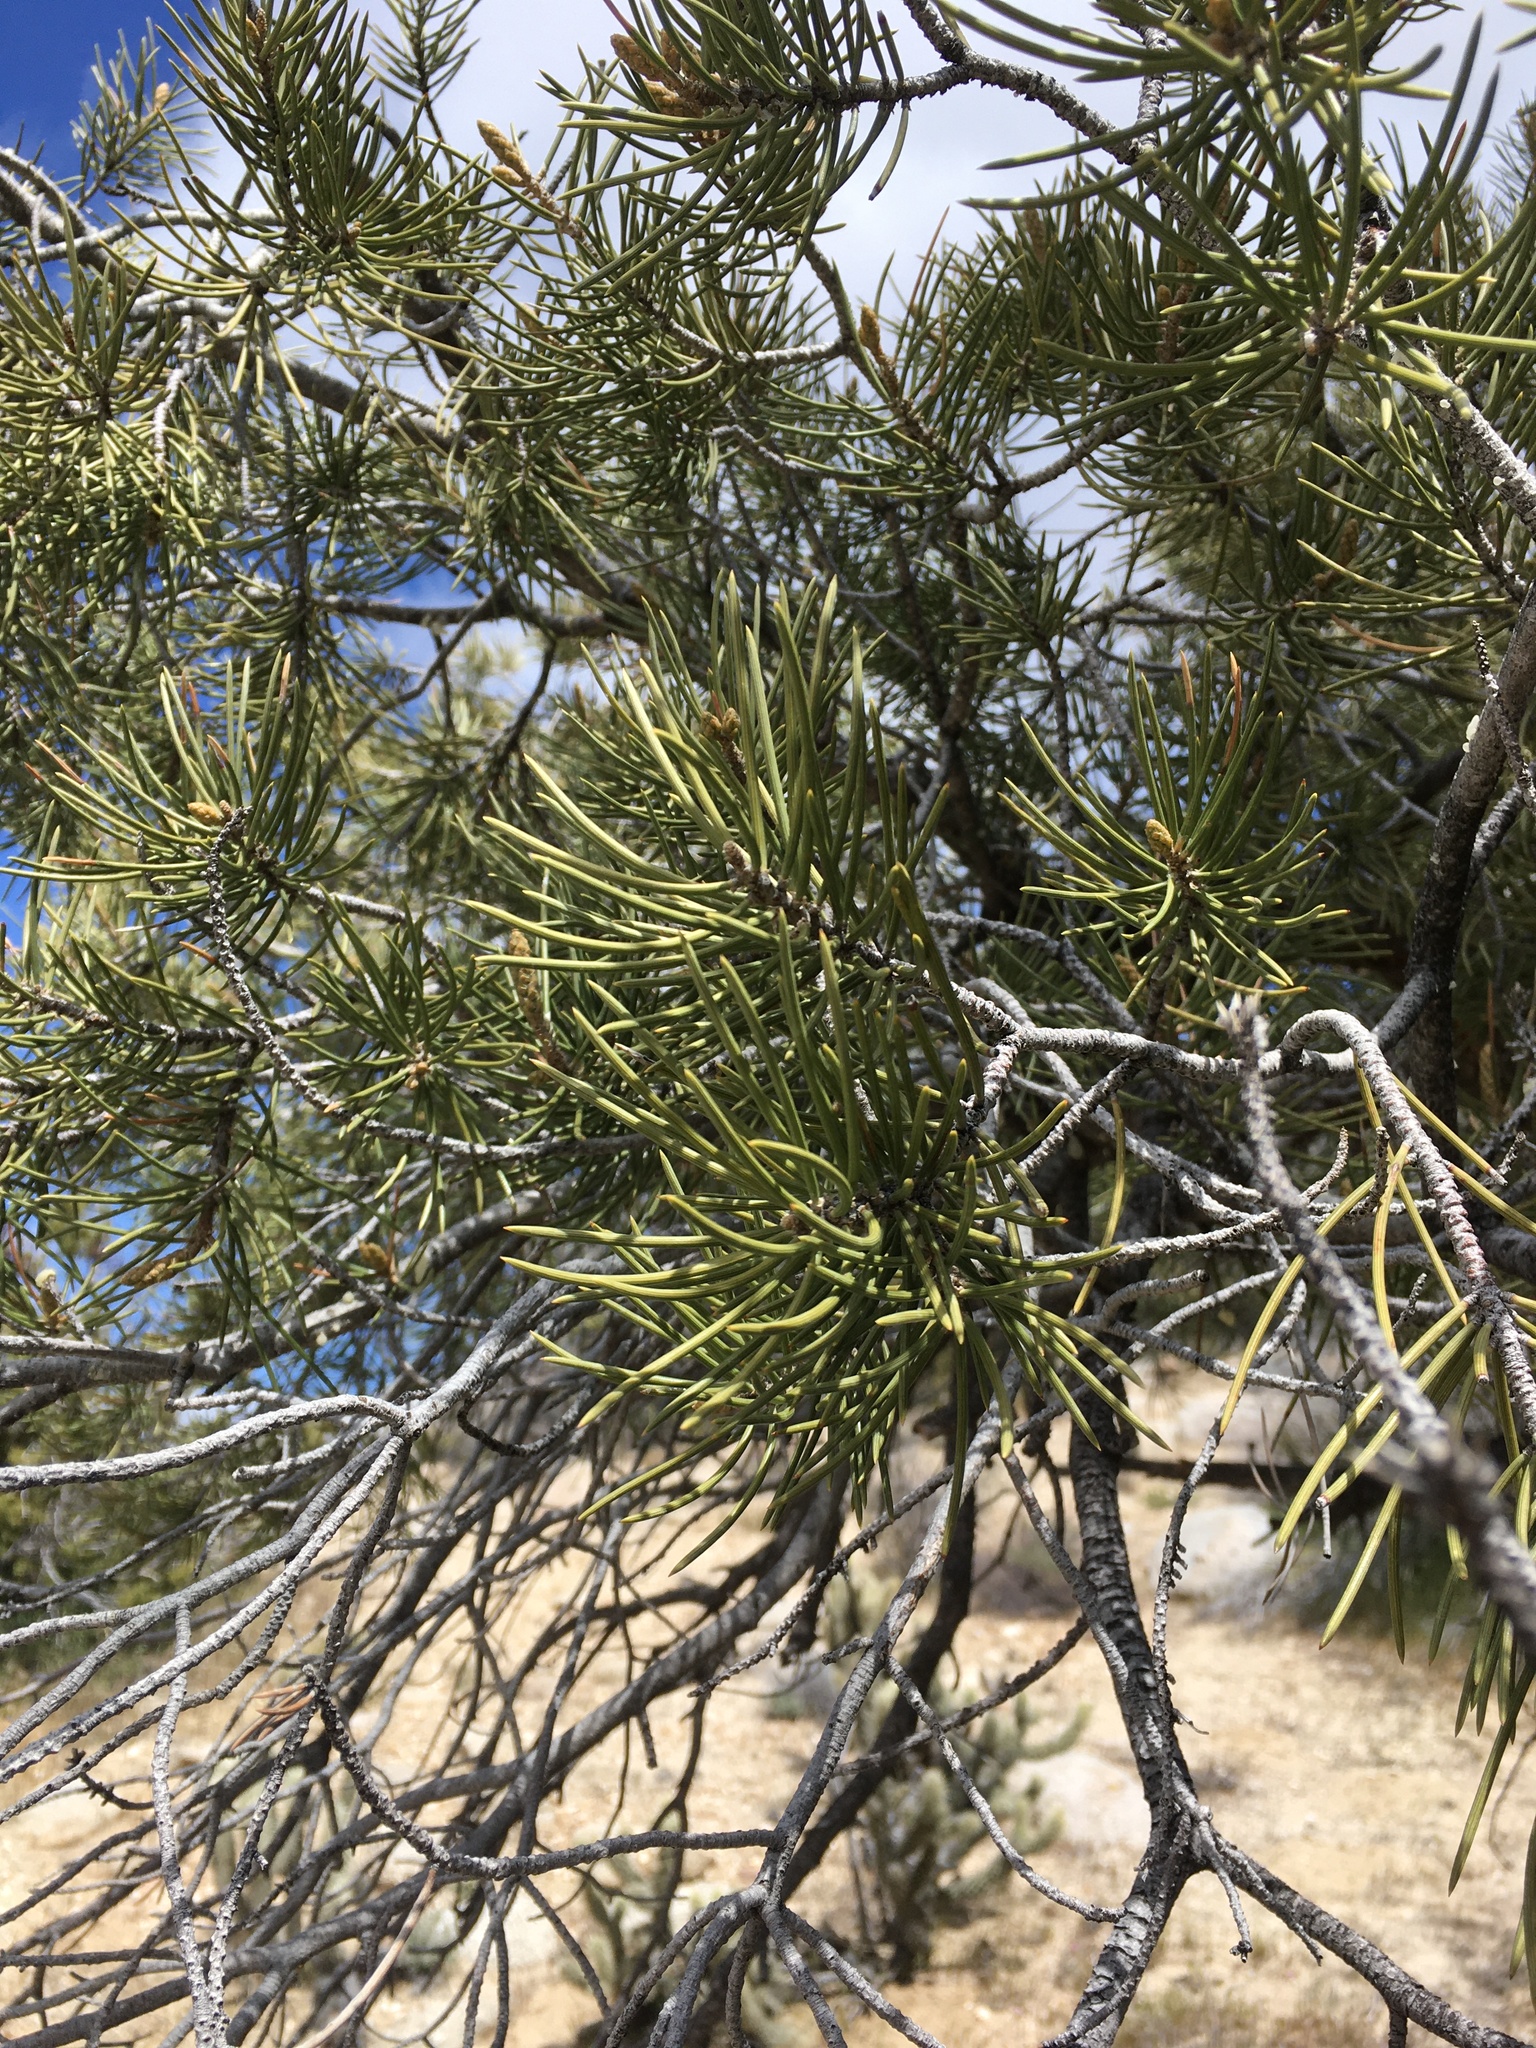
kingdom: Plantae
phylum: Tracheophyta
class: Pinopsida
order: Pinales
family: Pinaceae
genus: Pinus
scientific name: Pinus monophylla
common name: One-leaved nut pine
